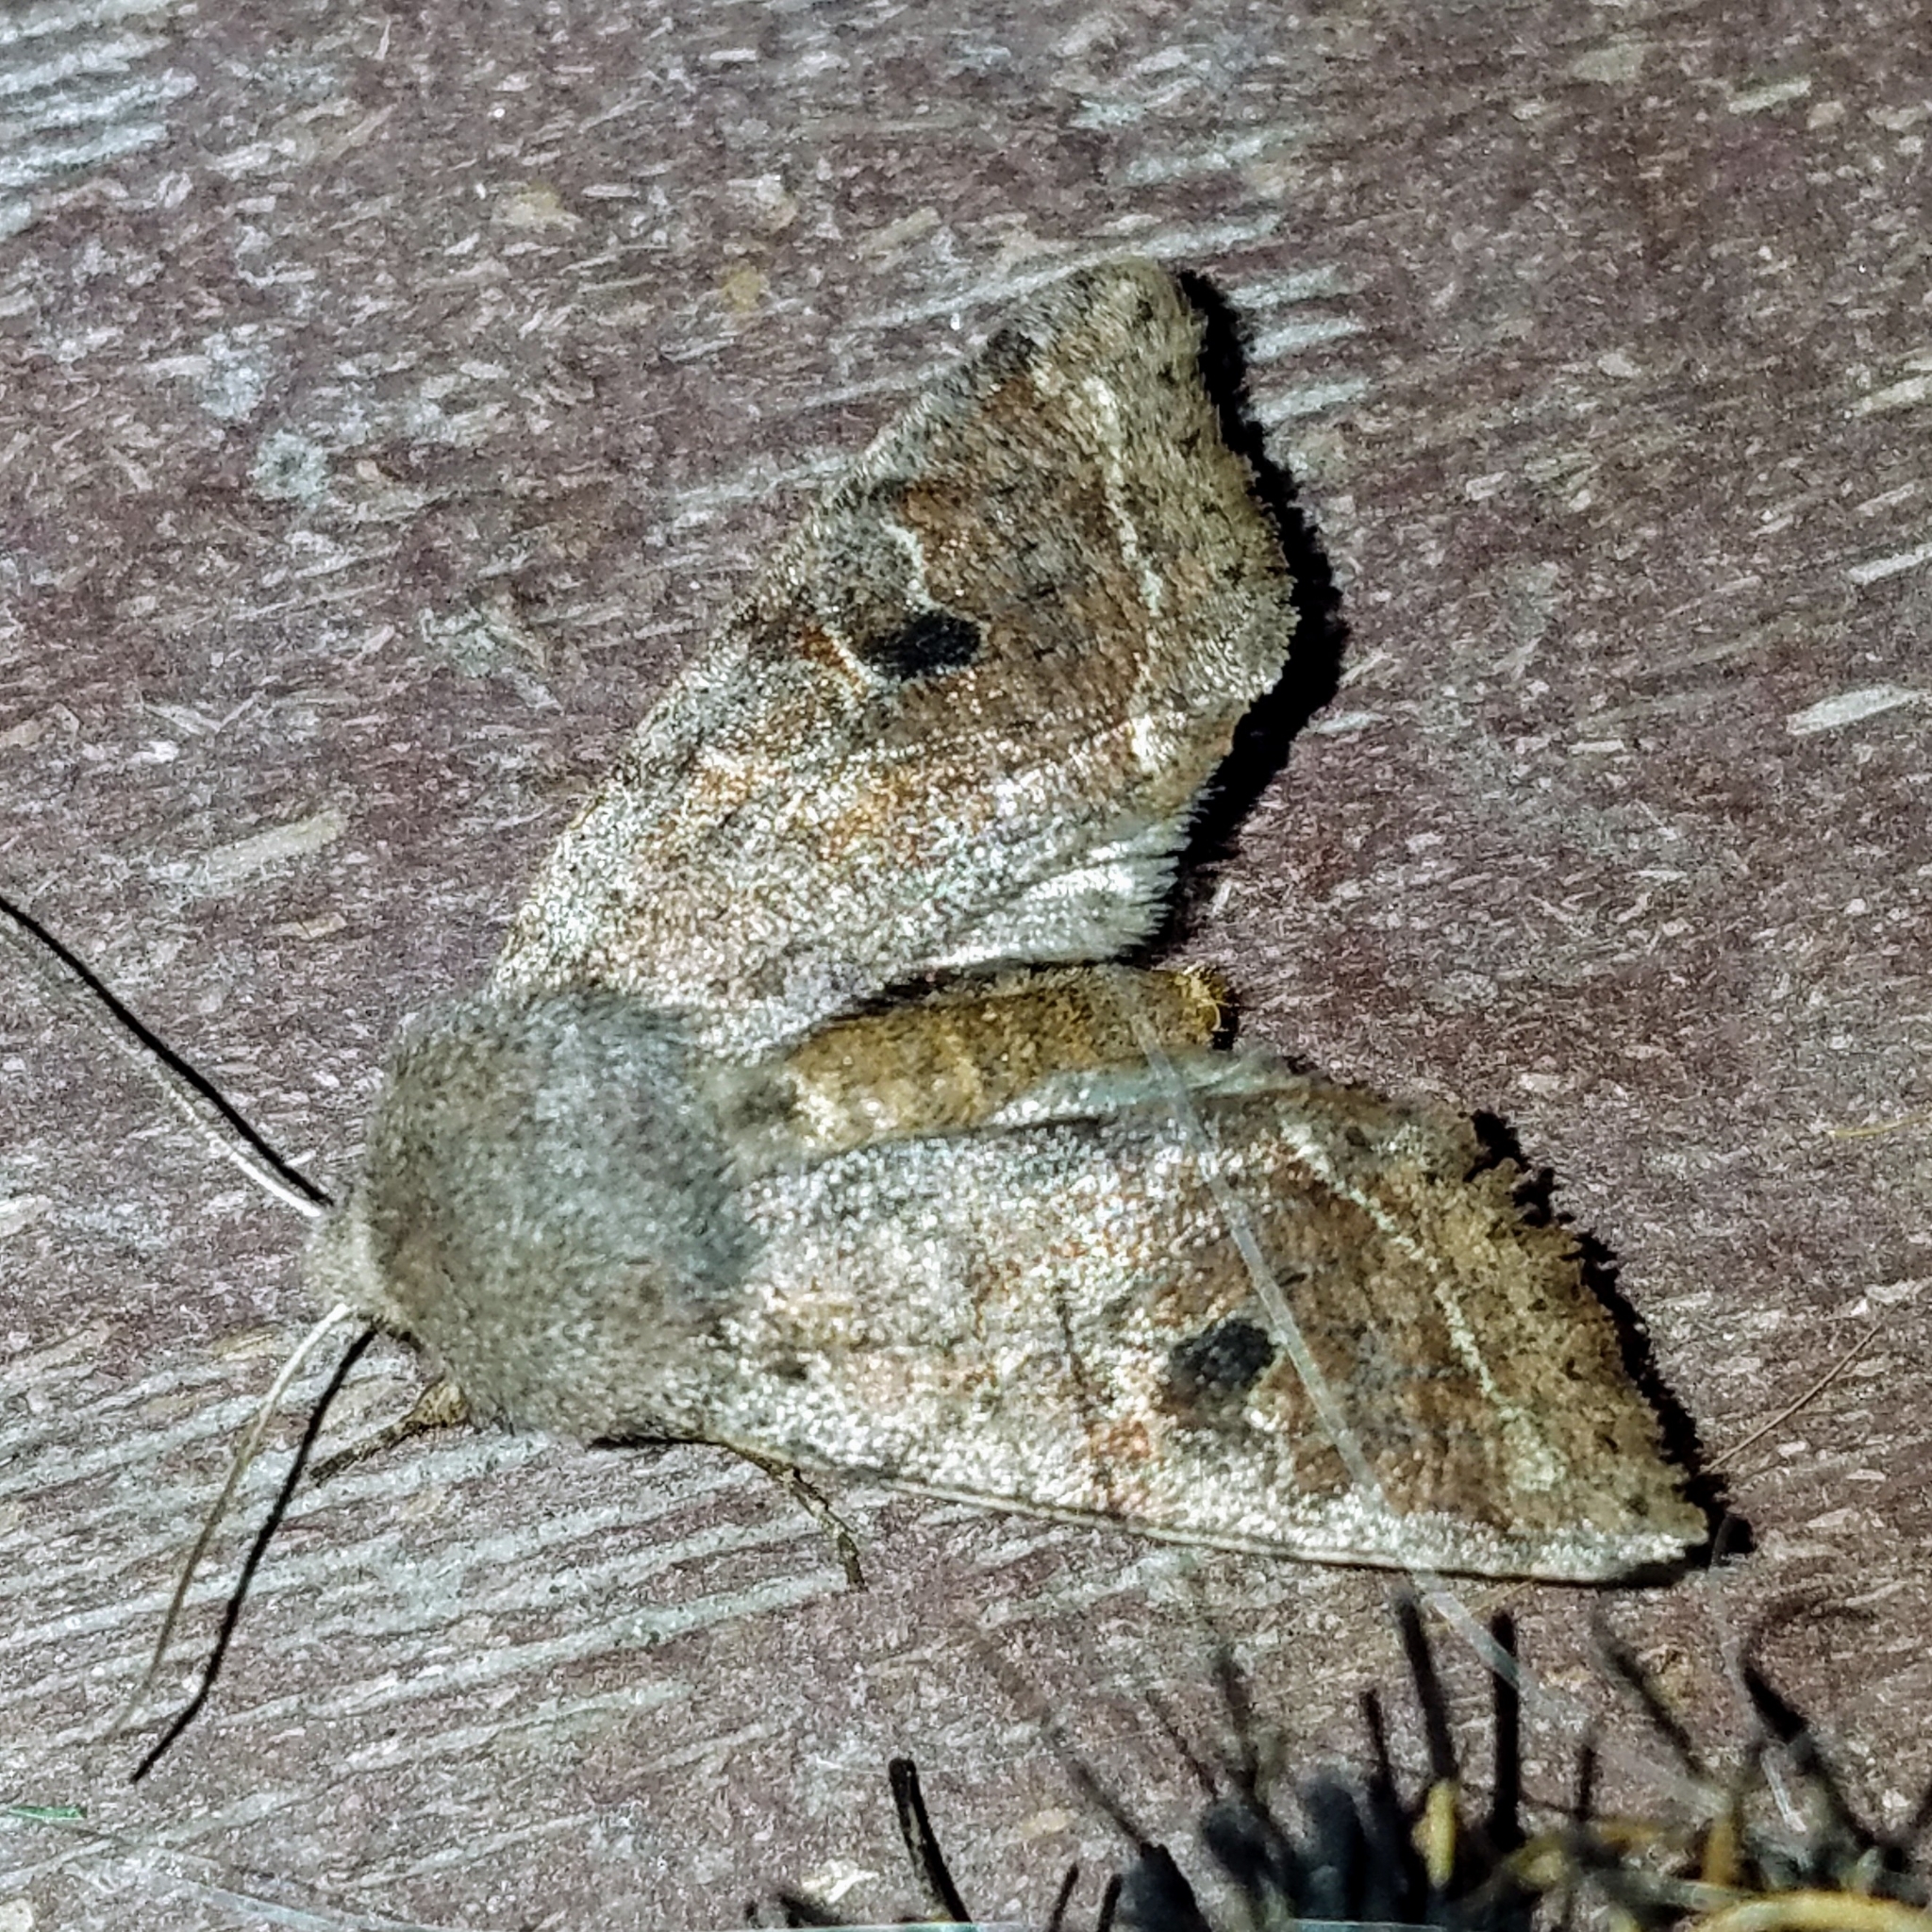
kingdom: Animalia
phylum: Arthropoda
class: Insecta
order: Lepidoptera
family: Noctuidae
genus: Orthosia
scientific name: Orthosia hibisci
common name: Green fruitworm
